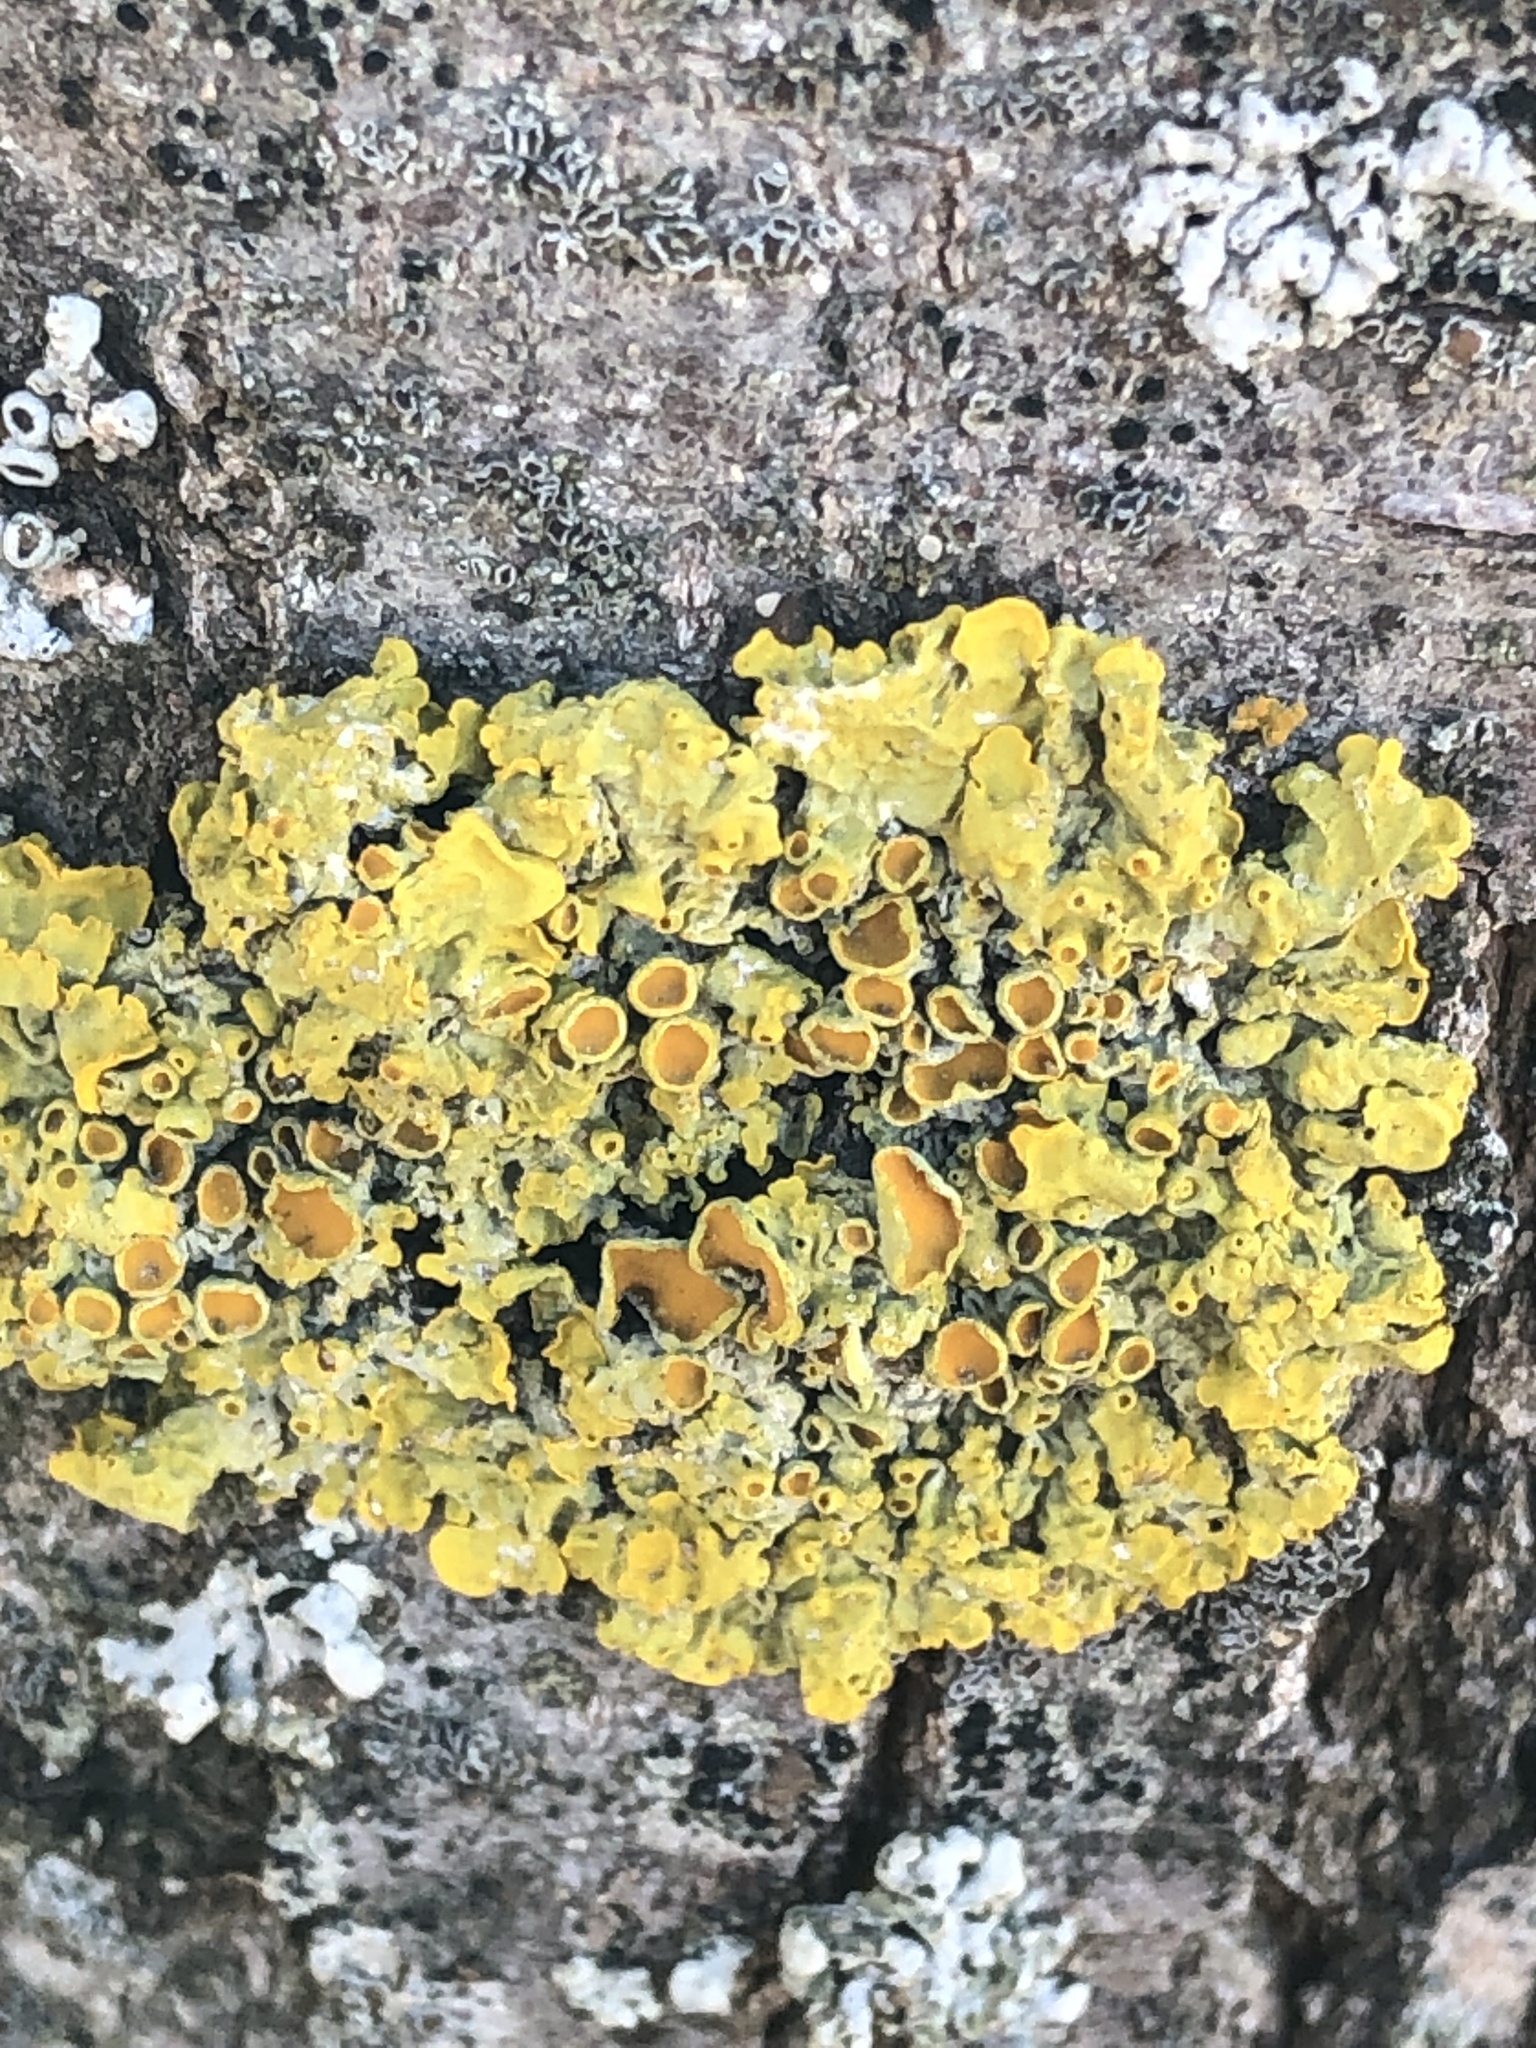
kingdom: Fungi
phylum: Ascomycota
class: Lecanoromycetes
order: Teloschistales
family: Teloschistaceae
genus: Xanthoria
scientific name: Xanthoria parietina
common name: Common orange lichen
